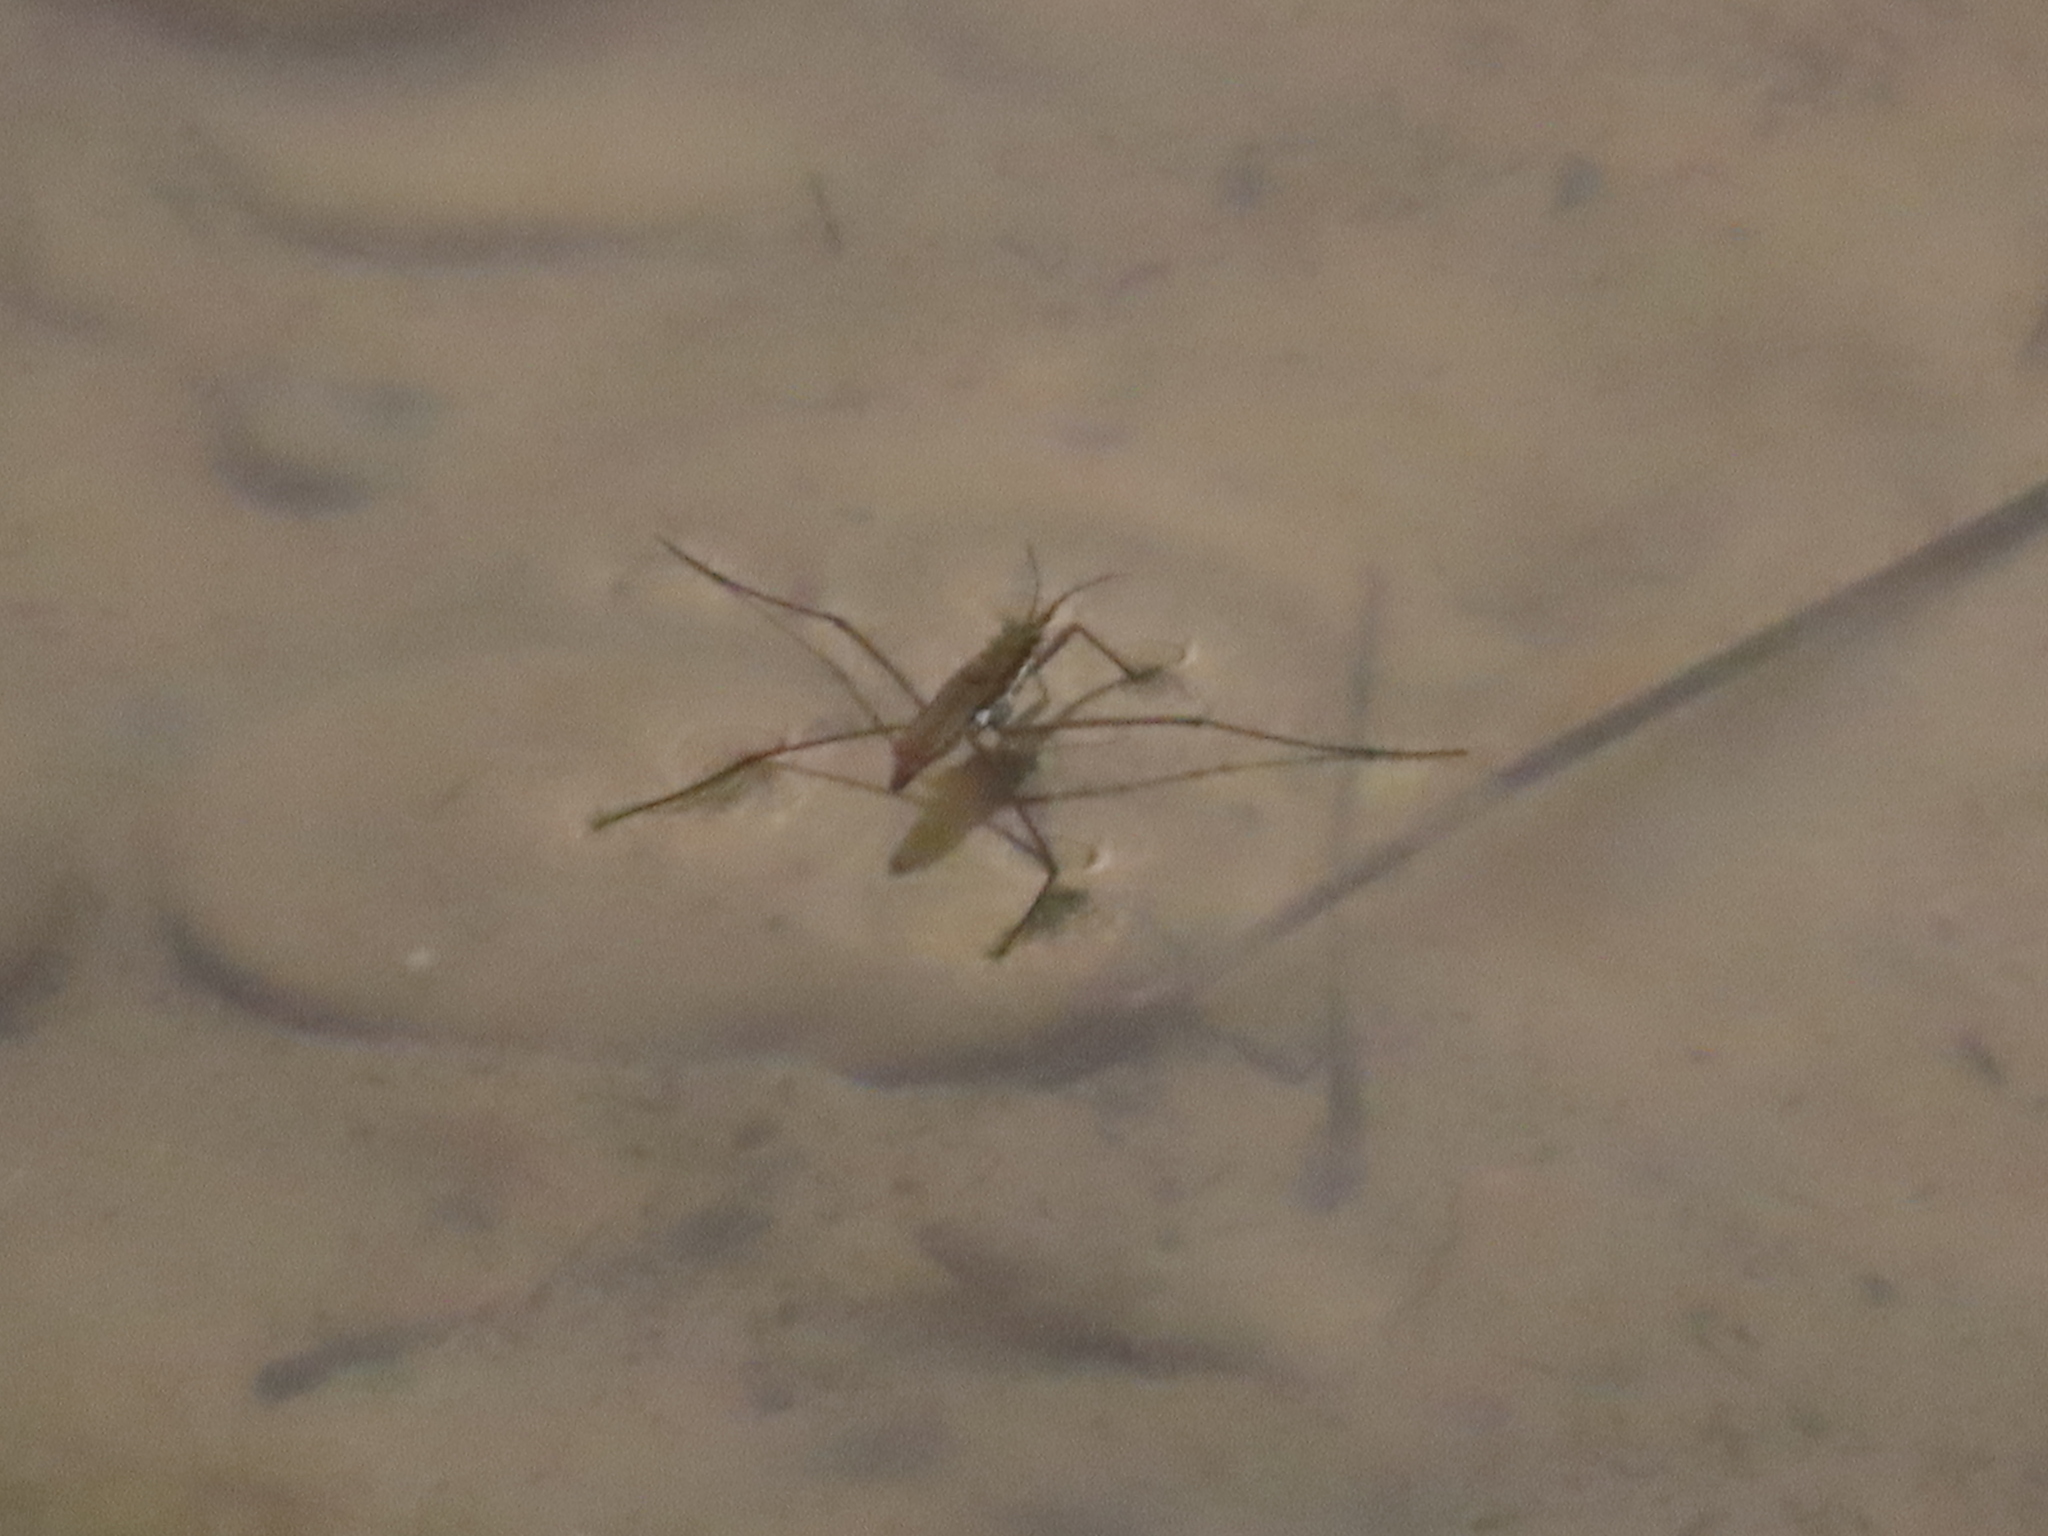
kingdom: Animalia
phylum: Arthropoda
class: Insecta
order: Hemiptera
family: Gerridae
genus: Aquarius
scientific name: Aquarius remigis
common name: Common water strider
